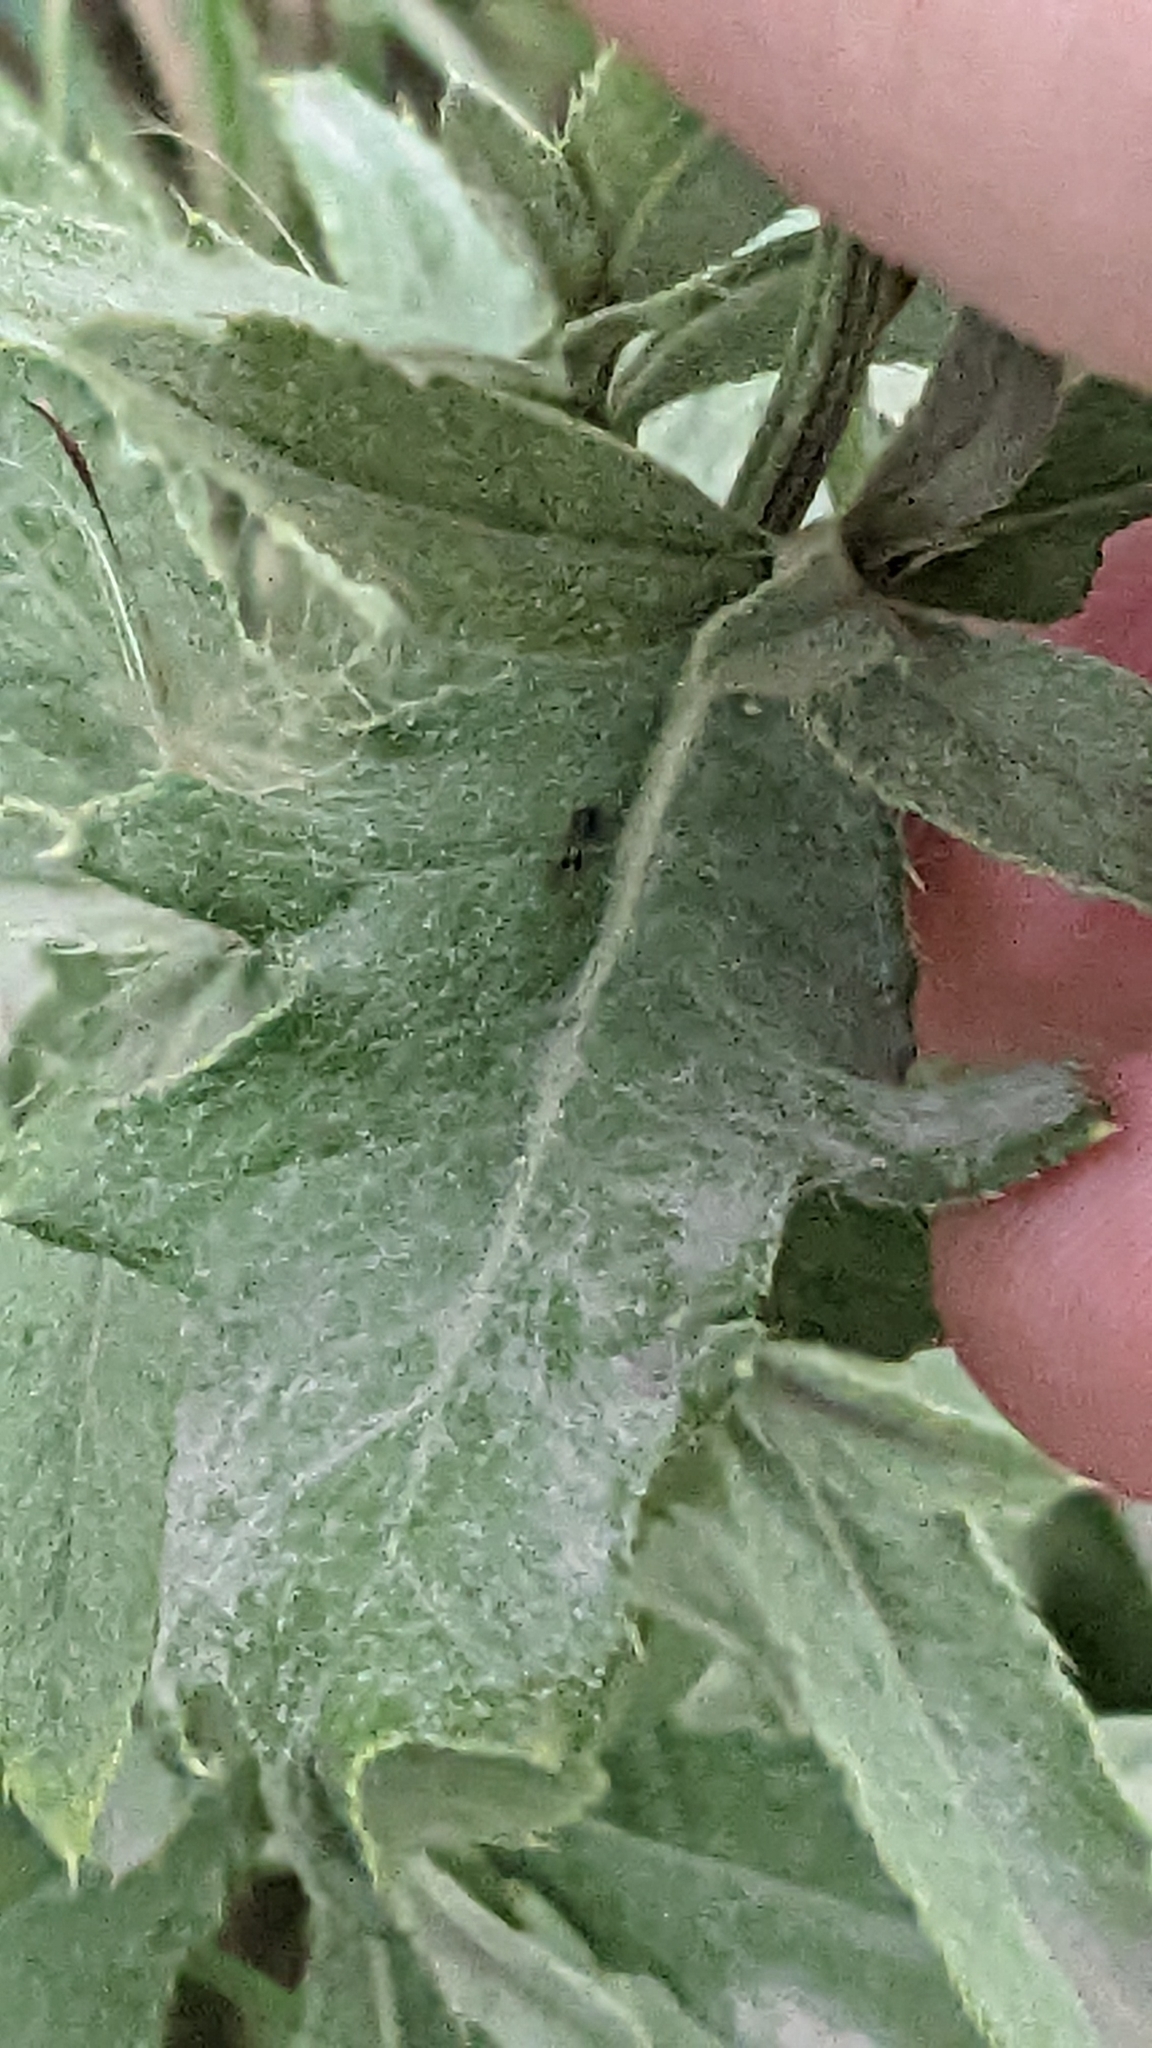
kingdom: Plantae
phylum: Tracheophyta
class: Magnoliopsida
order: Asterales
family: Asteraceae
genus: Cirsium
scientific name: Cirsium arvense
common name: Creeping thistle
